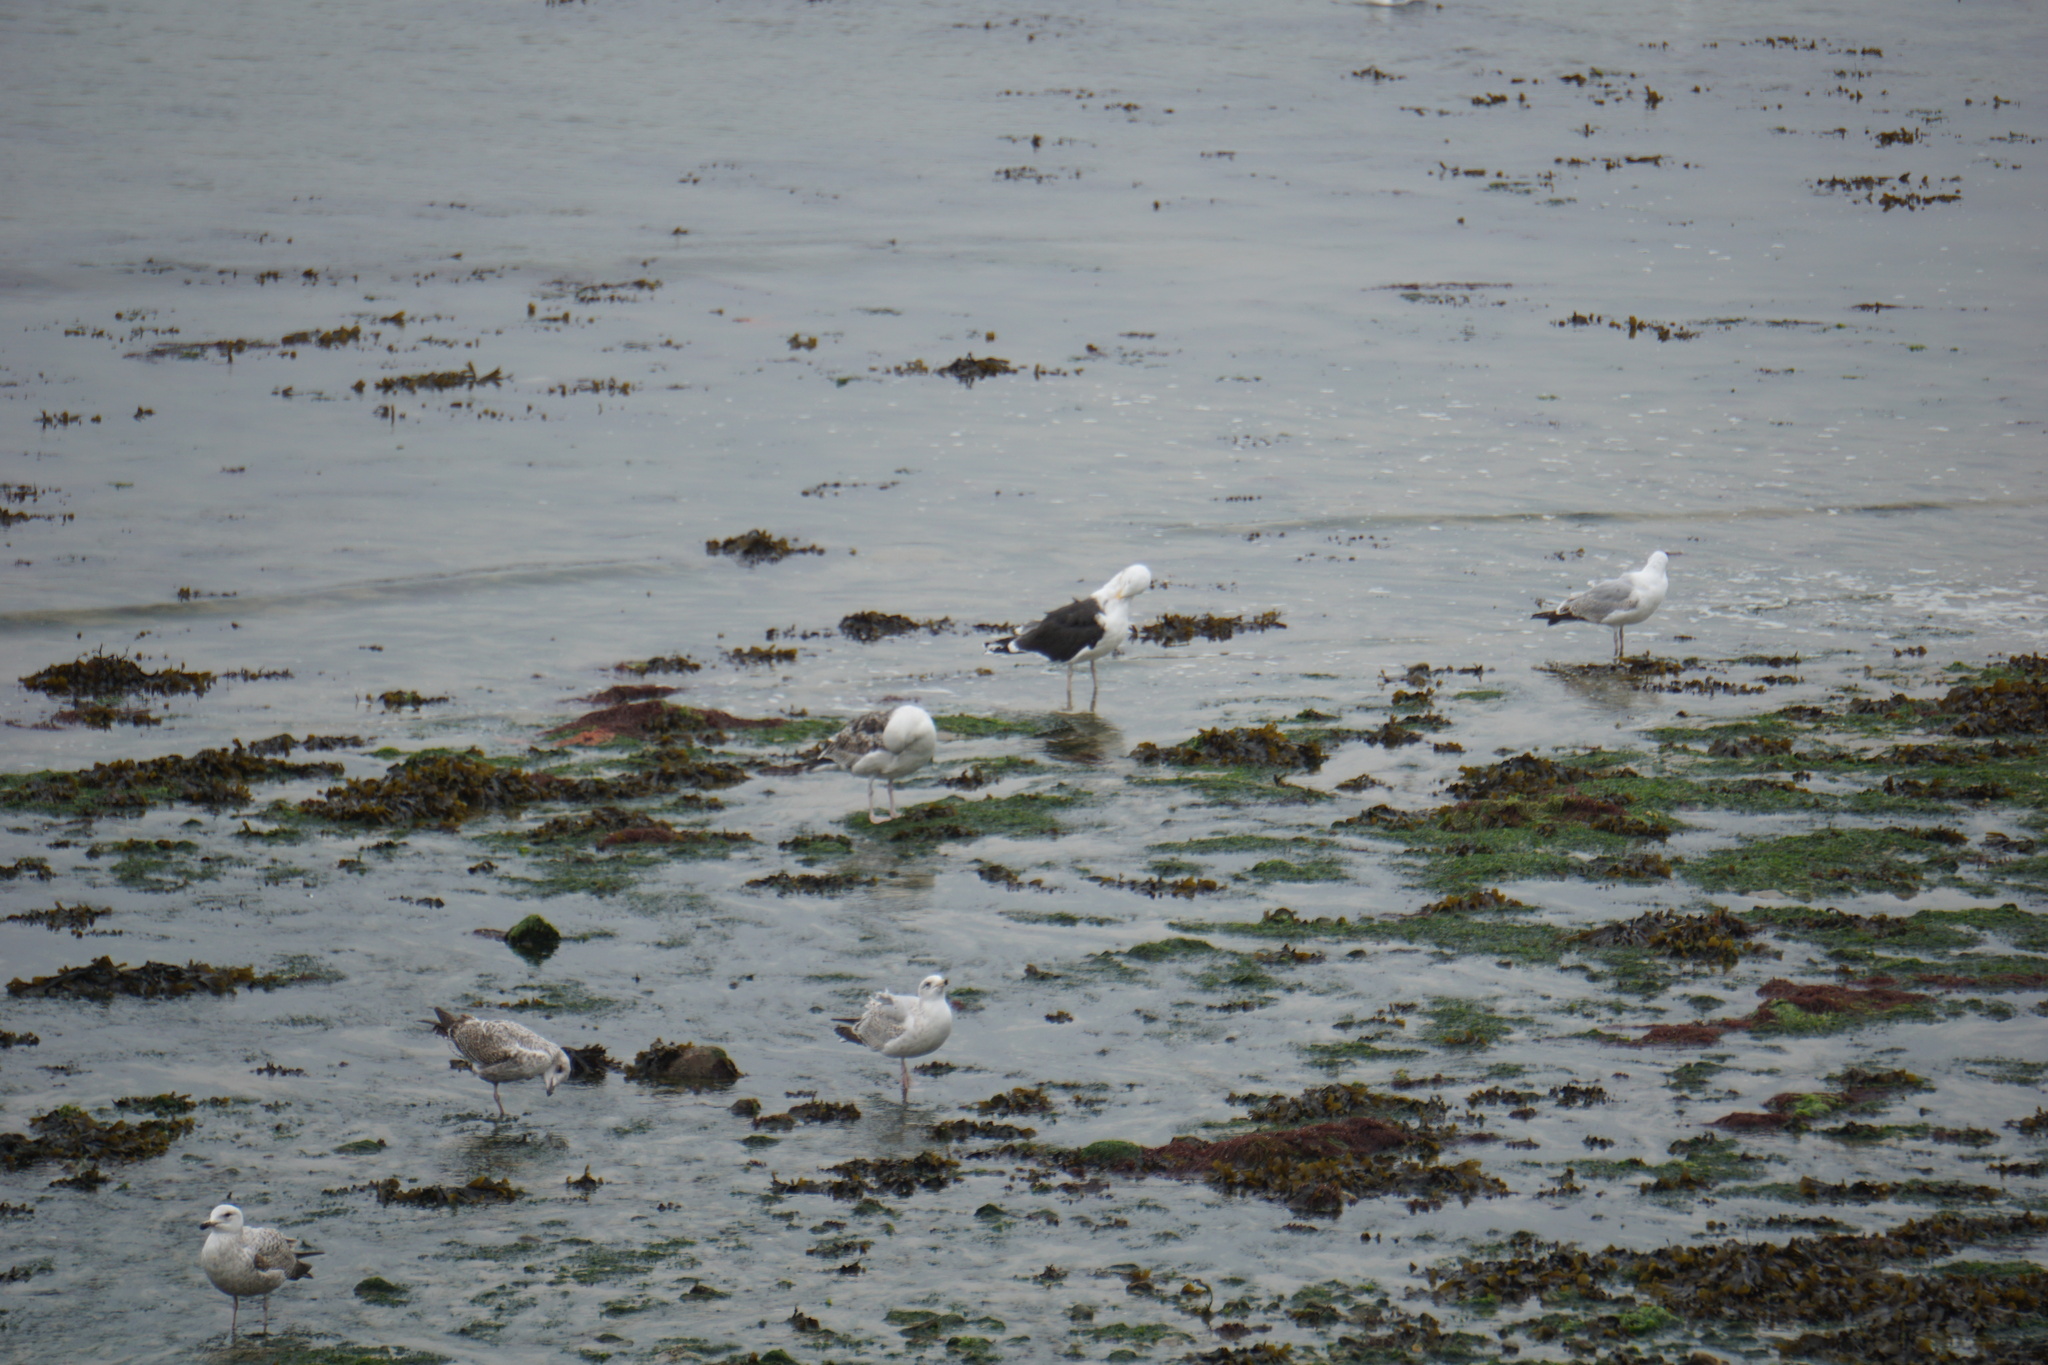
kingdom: Animalia
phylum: Chordata
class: Aves
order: Charadriiformes
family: Laridae
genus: Larus
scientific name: Larus marinus
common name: Great black-backed gull
